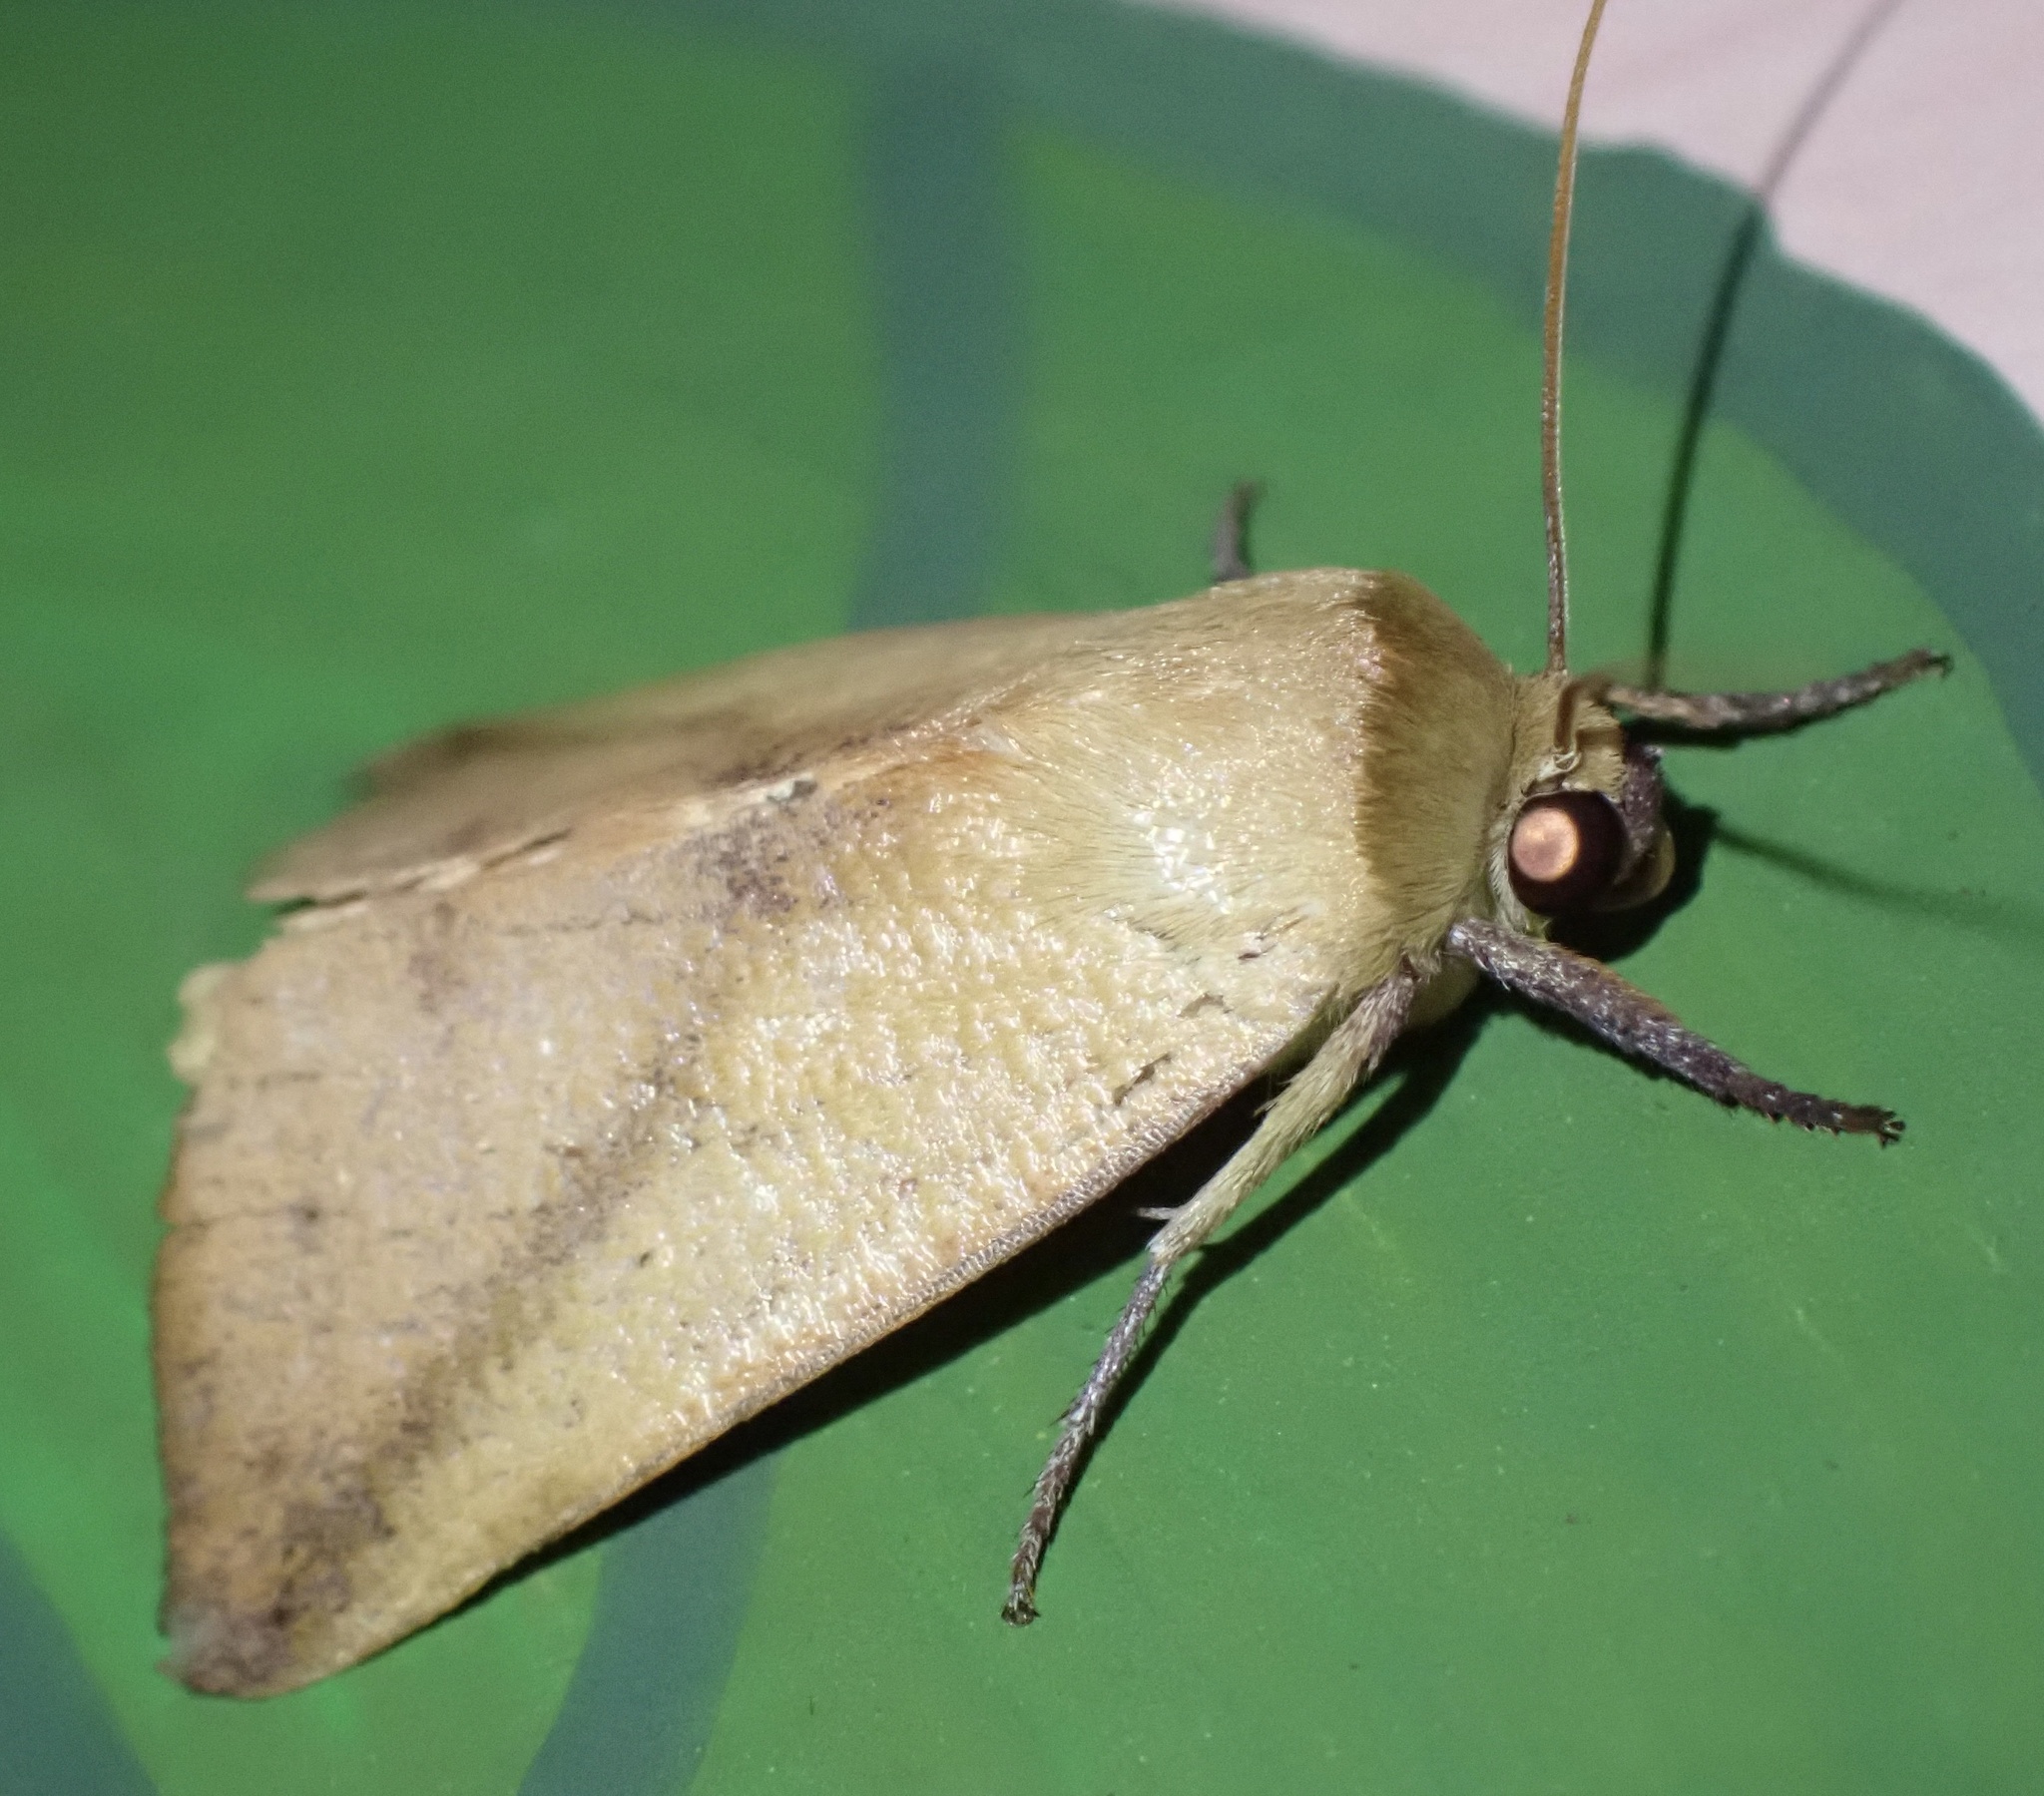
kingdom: Animalia
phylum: Arthropoda
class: Insecta
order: Lepidoptera
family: Nolidae
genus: Carea
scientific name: Carea pratti
